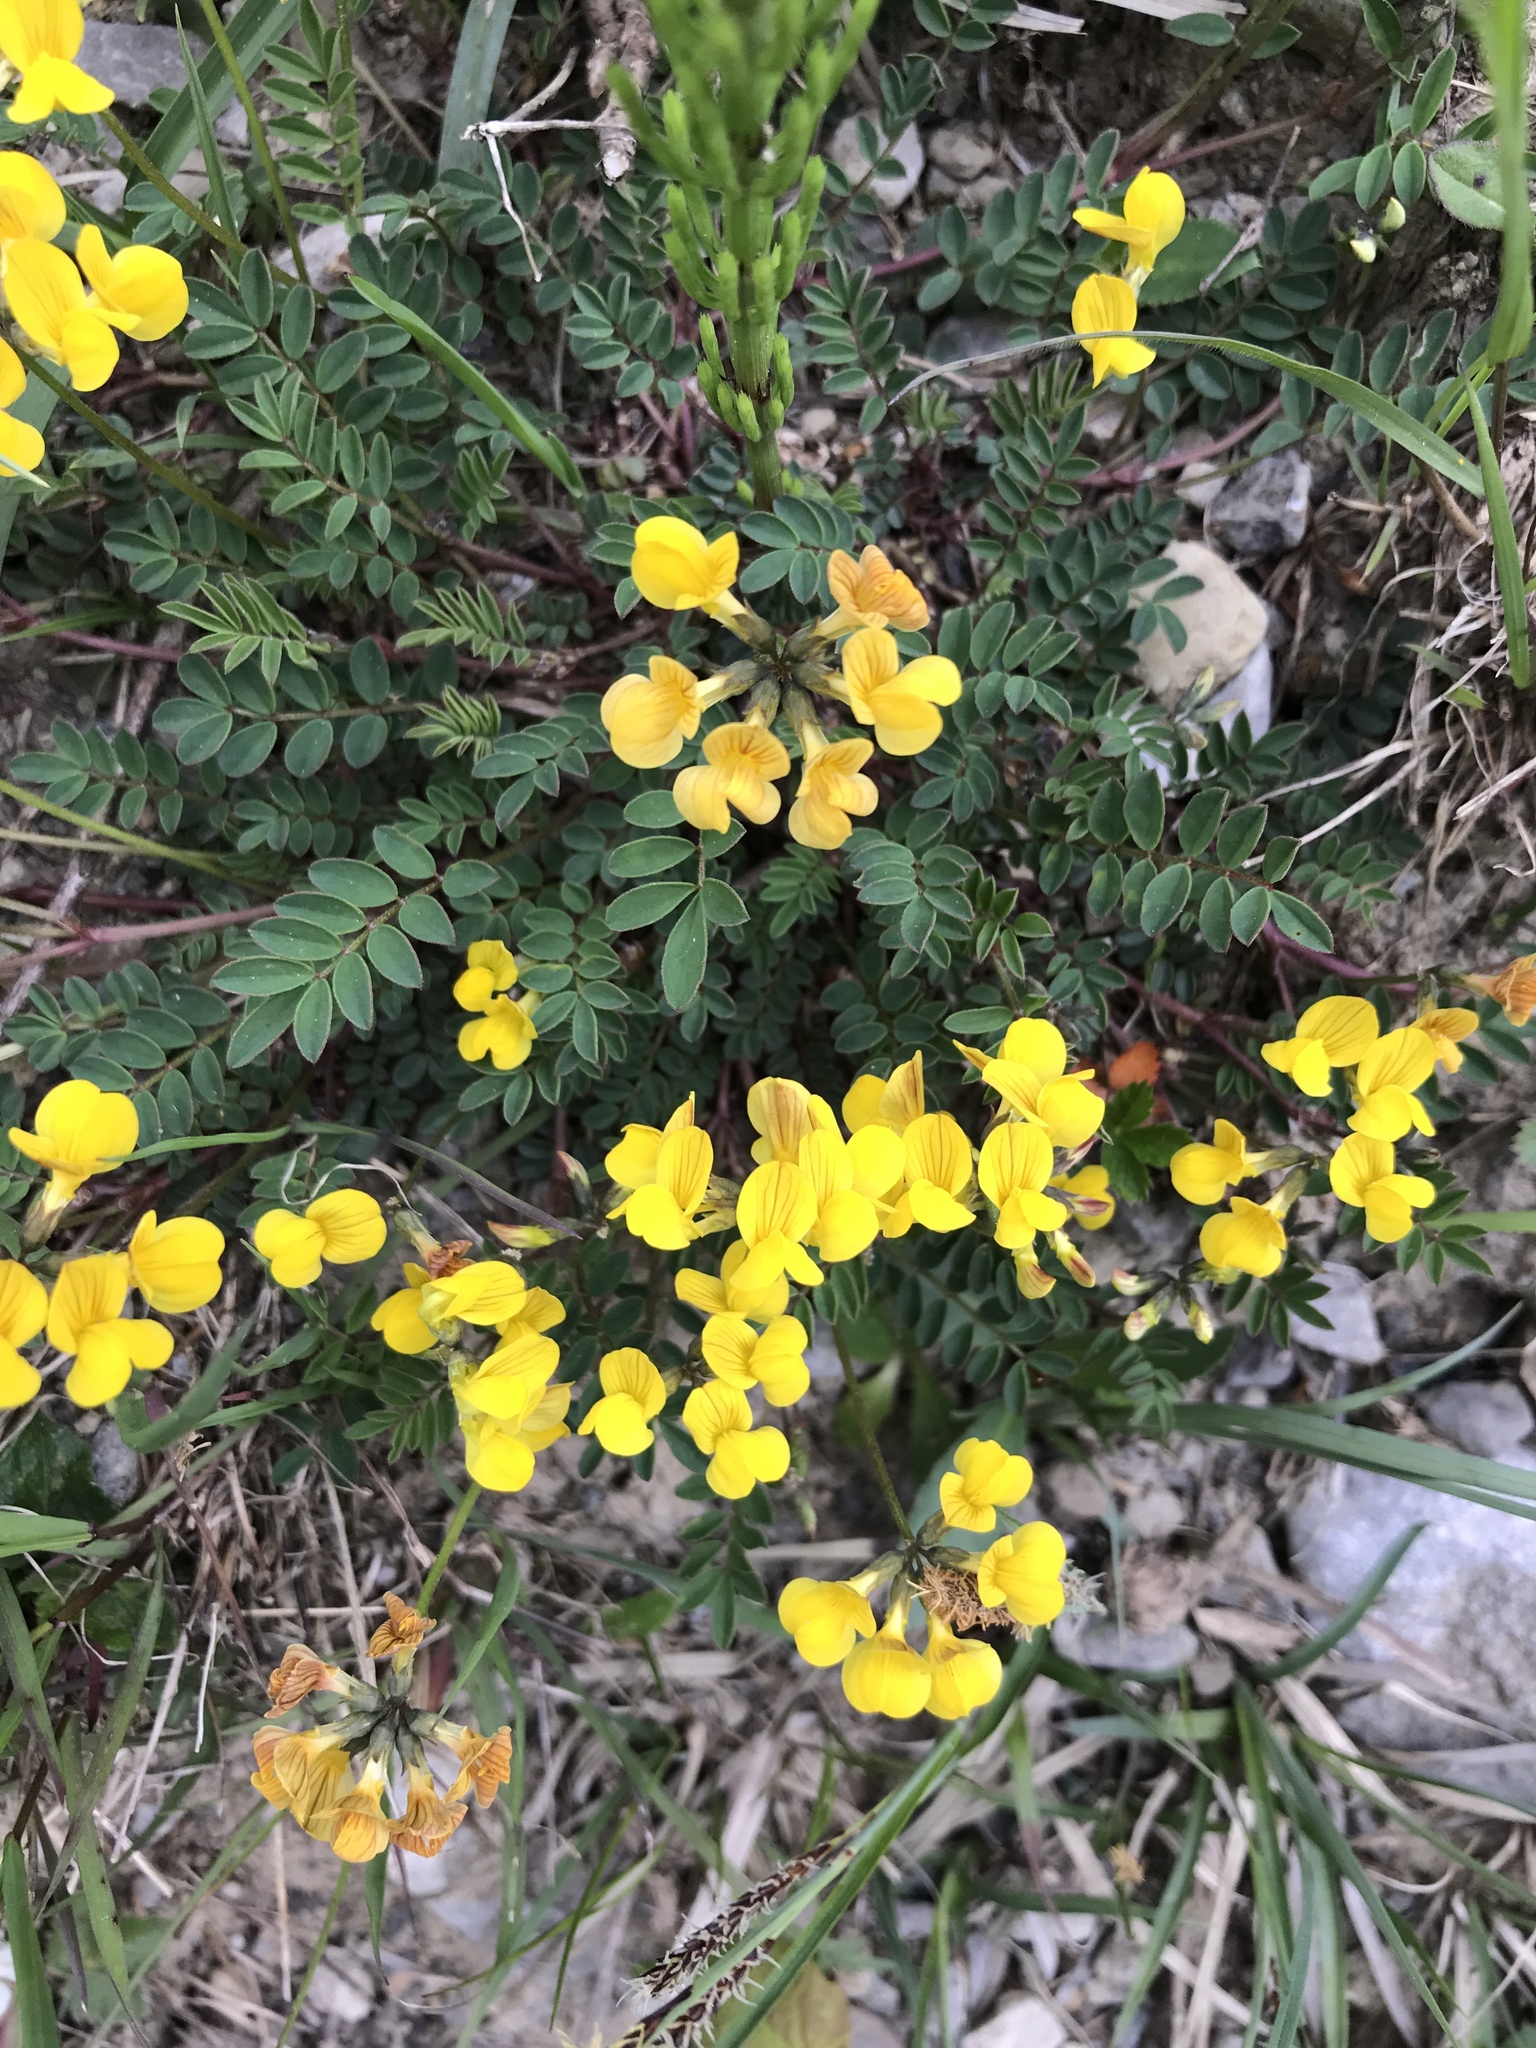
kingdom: Plantae
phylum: Tracheophyta
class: Magnoliopsida
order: Fabales
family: Fabaceae
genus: Hippocrepis
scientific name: Hippocrepis comosa
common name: Horseshoe vetch
